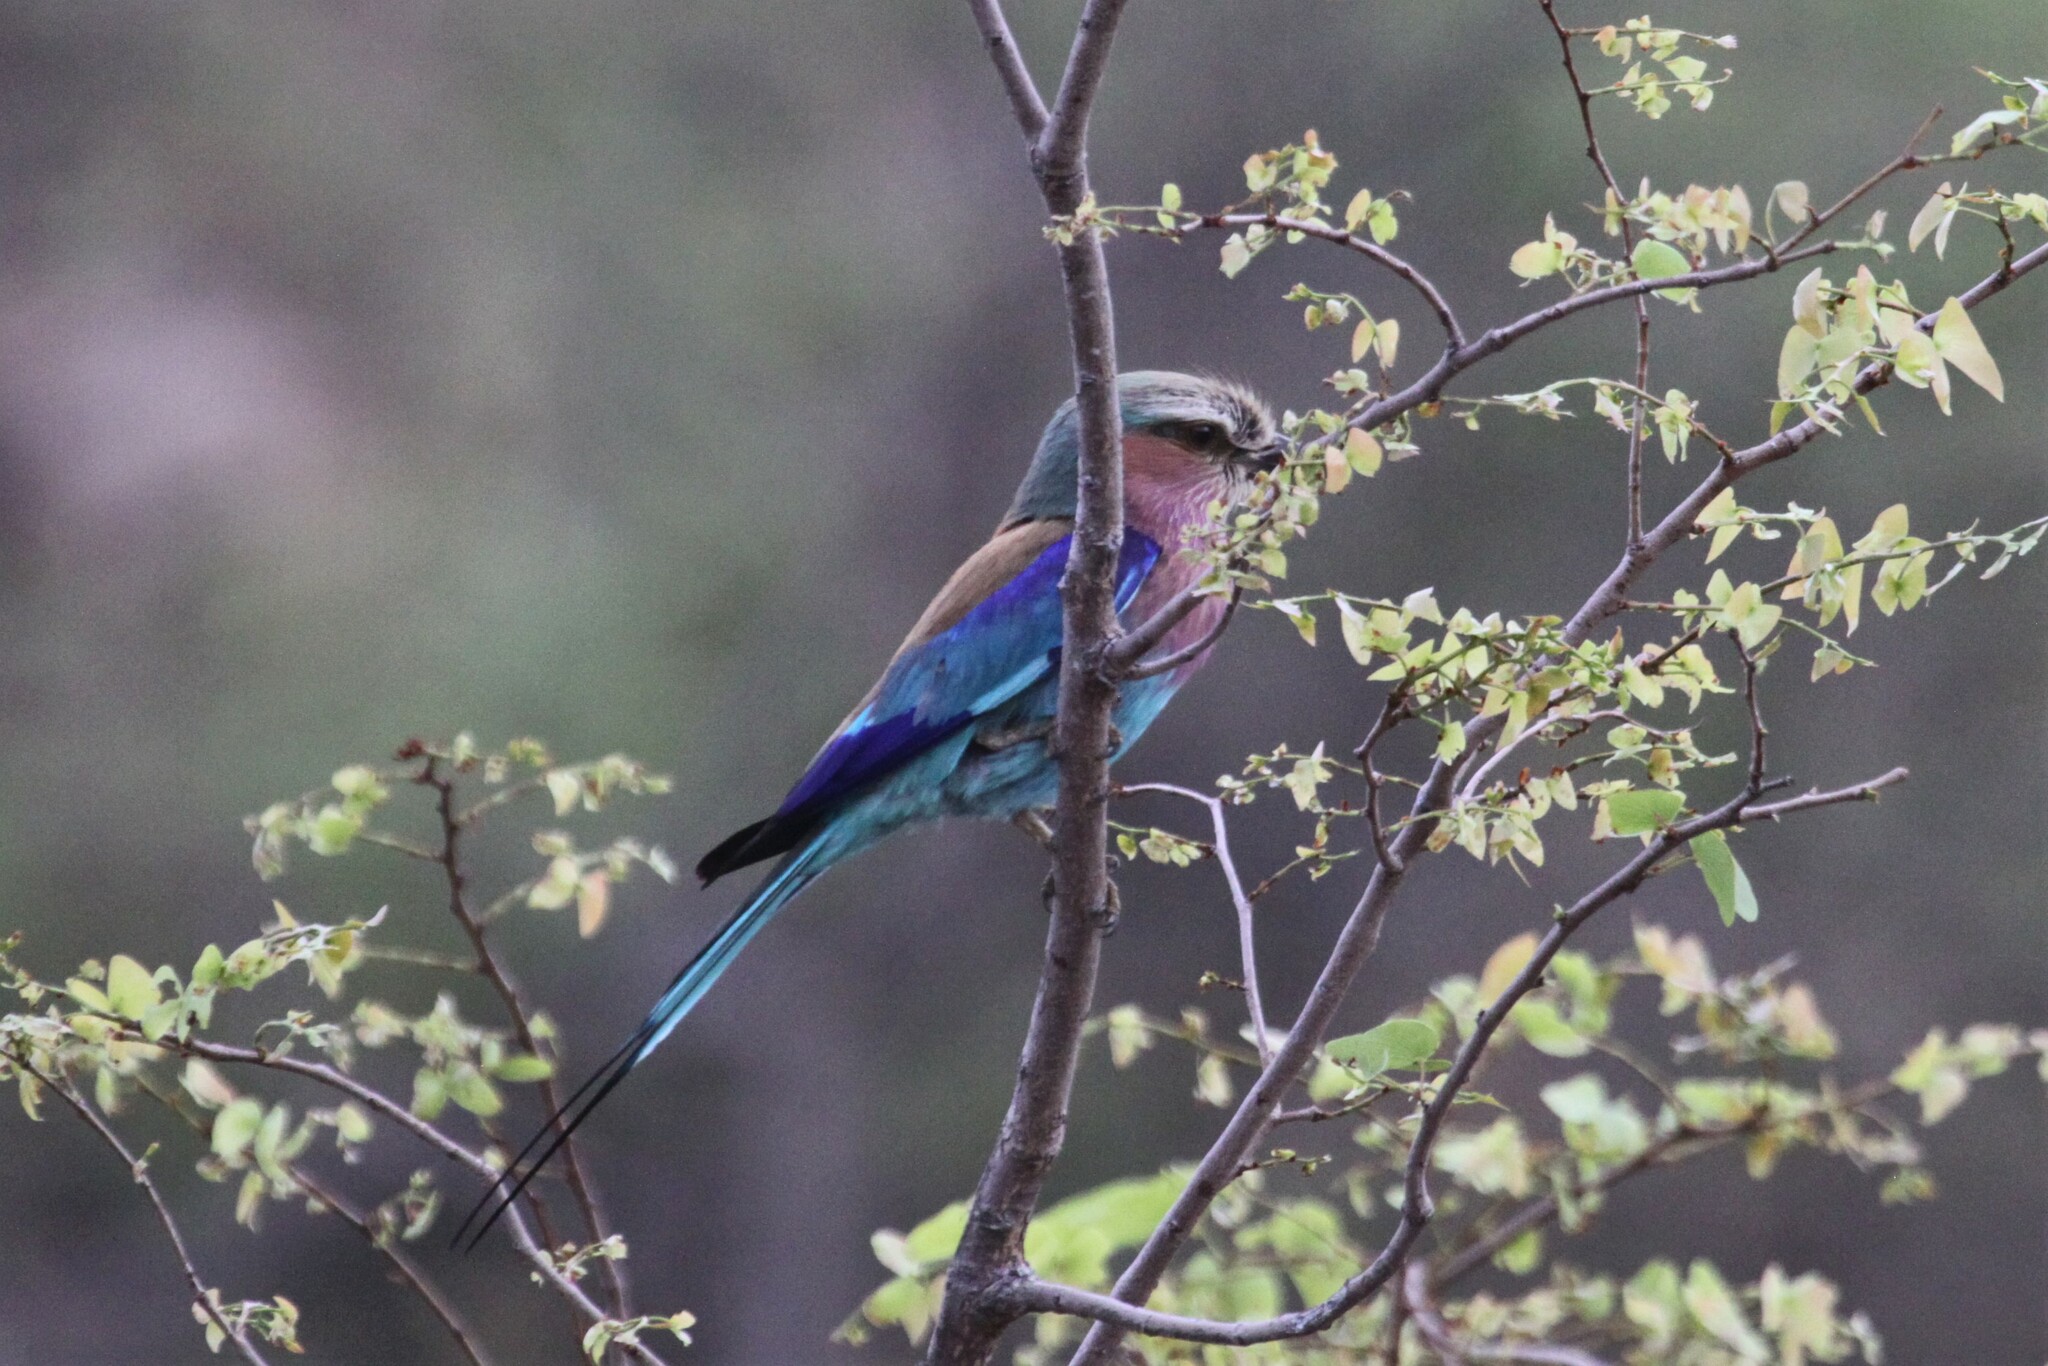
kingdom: Animalia
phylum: Chordata
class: Aves
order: Coraciiformes
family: Coraciidae
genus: Coracias
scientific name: Coracias caudatus
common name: Lilac-breasted roller
